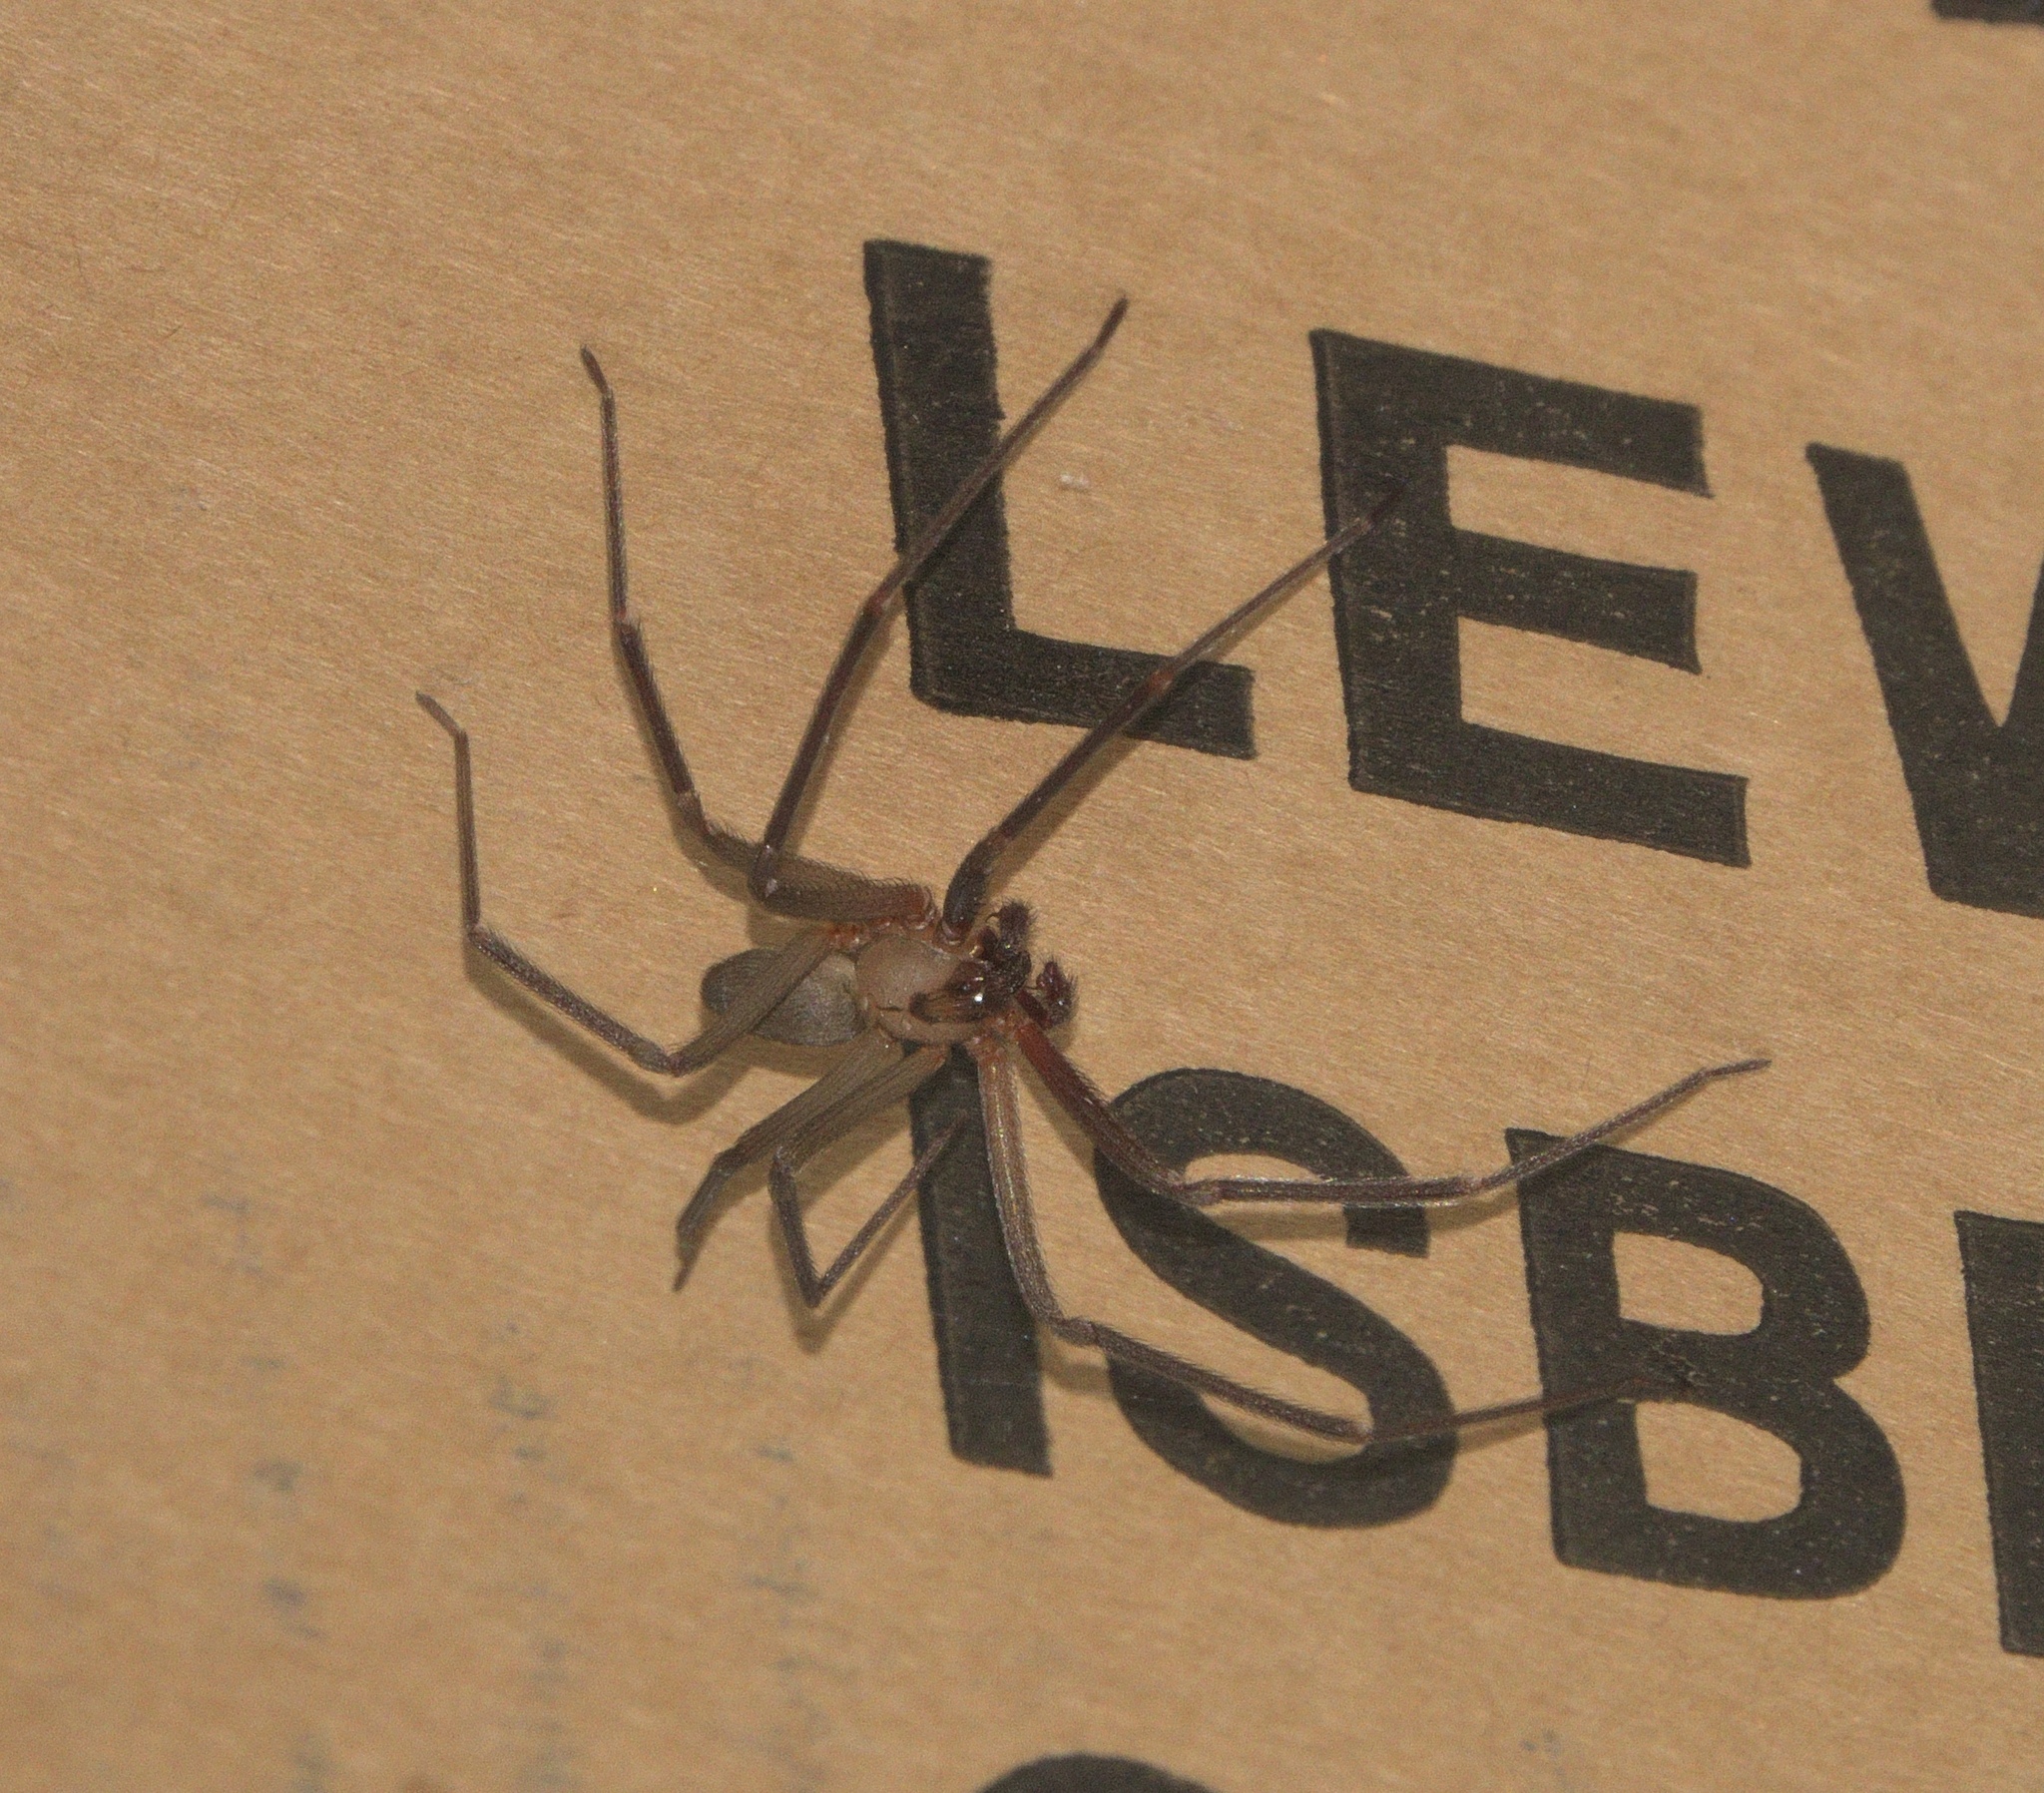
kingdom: Animalia
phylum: Arthropoda
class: Arachnida
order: Araneae
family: Sicariidae
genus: Loxosceles
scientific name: Loxosceles reclusa
